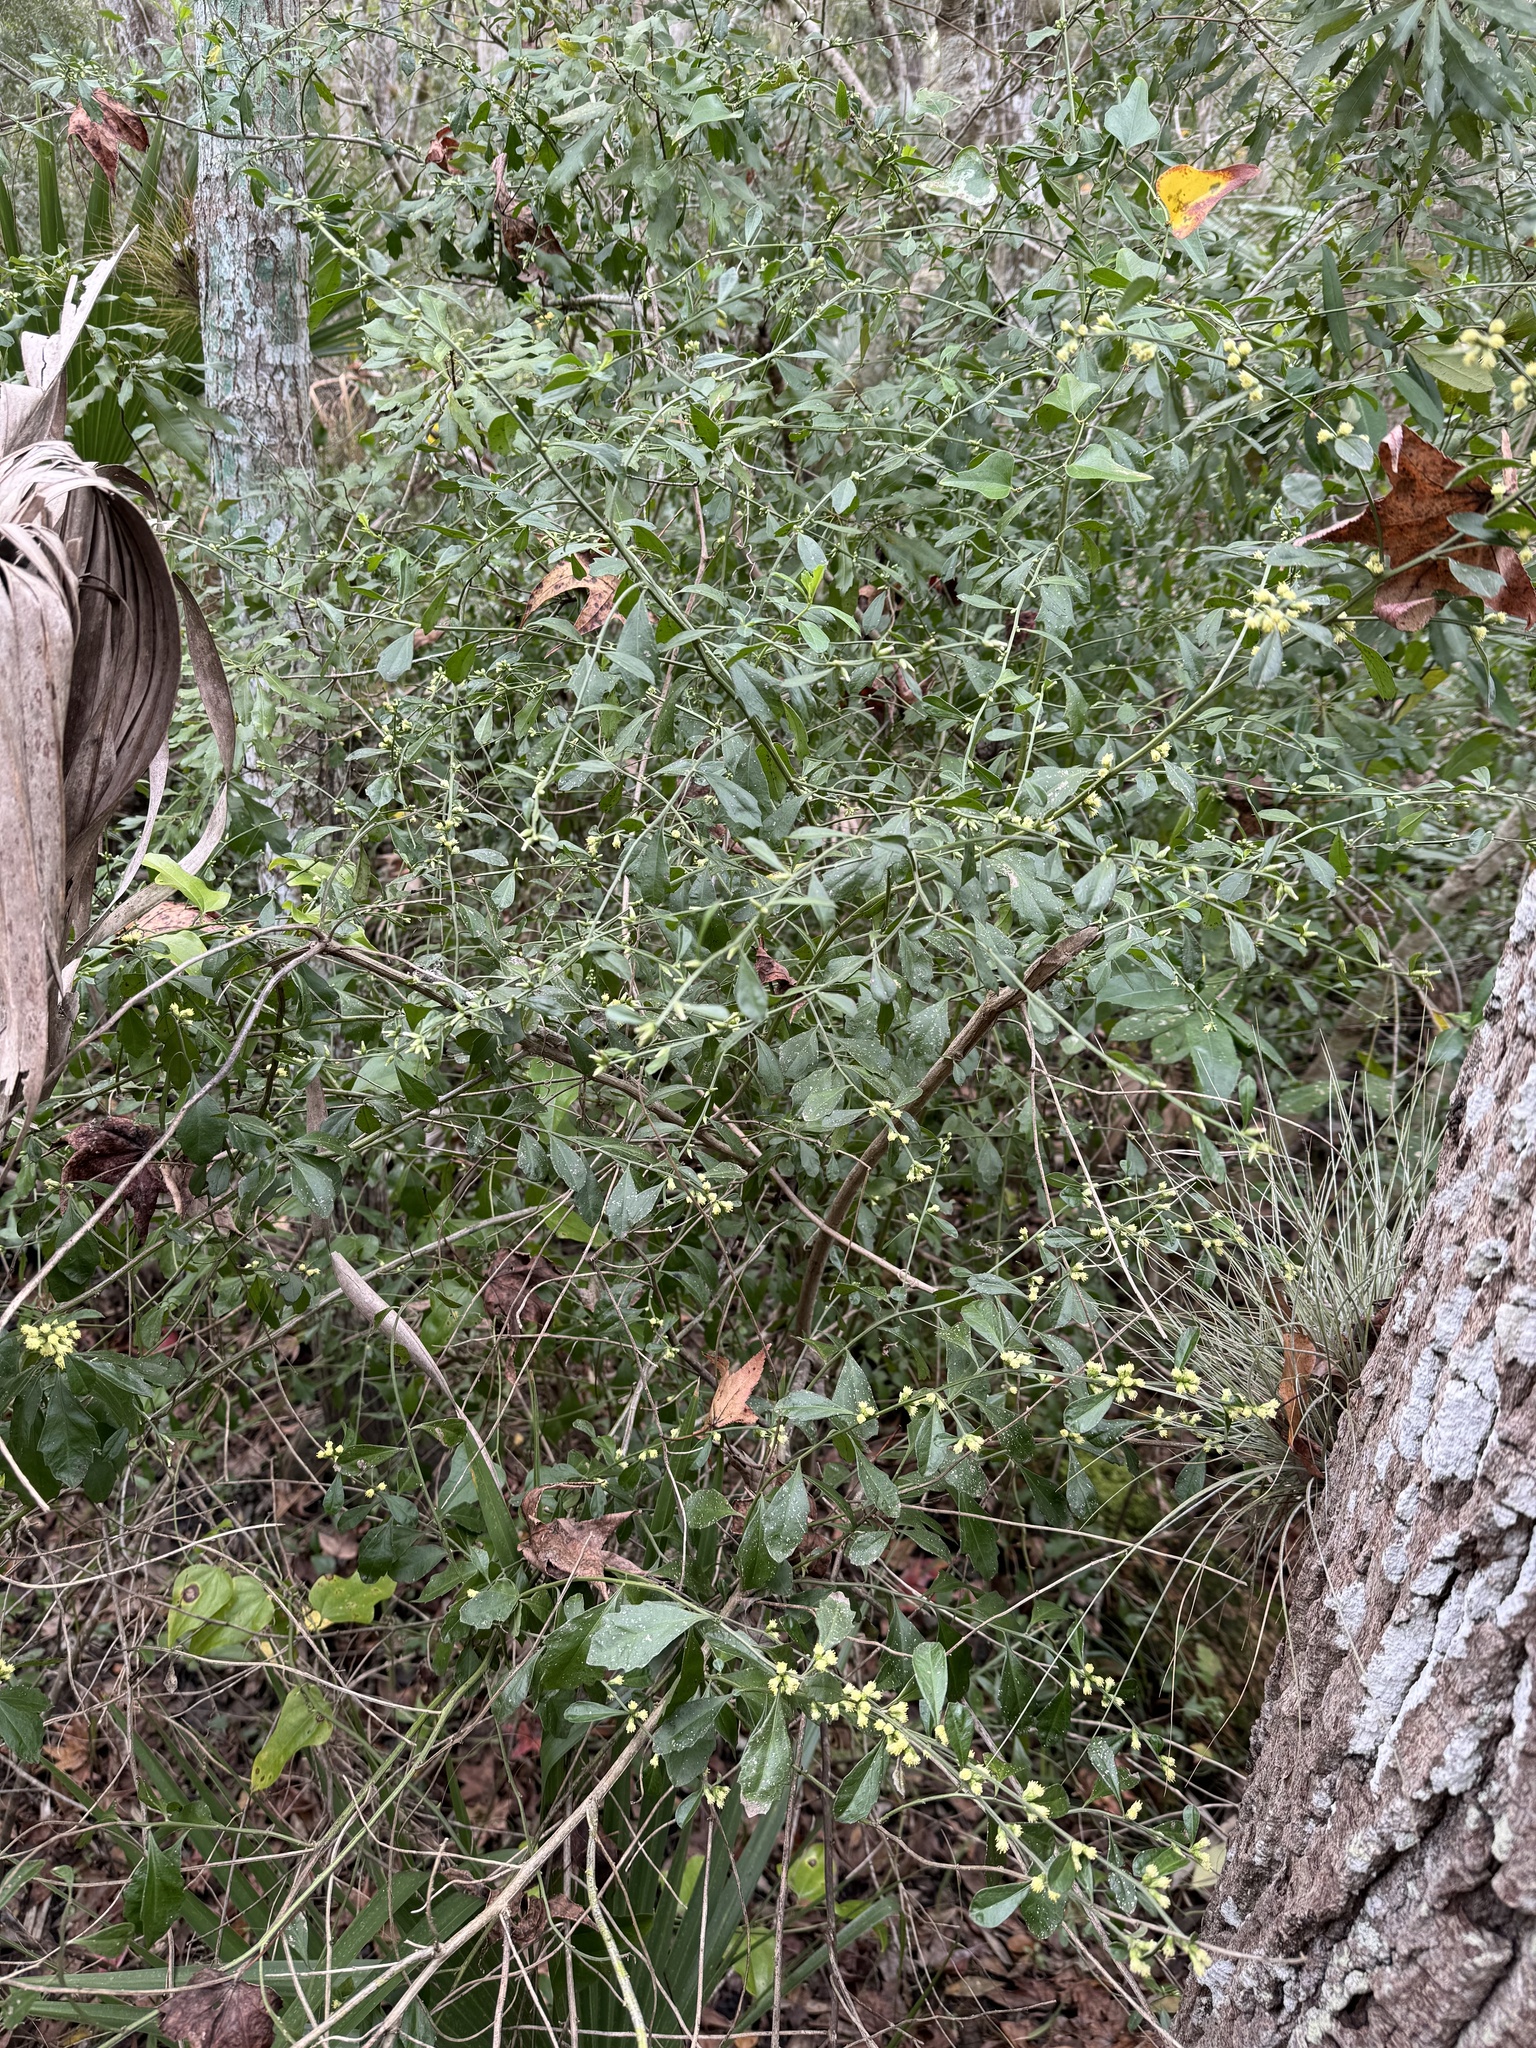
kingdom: Plantae
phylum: Tracheophyta
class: Magnoliopsida
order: Asterales
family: Asteraceae
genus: Baccharis
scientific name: Baccharis glomeruliflora
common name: Silverling groundsel bush
